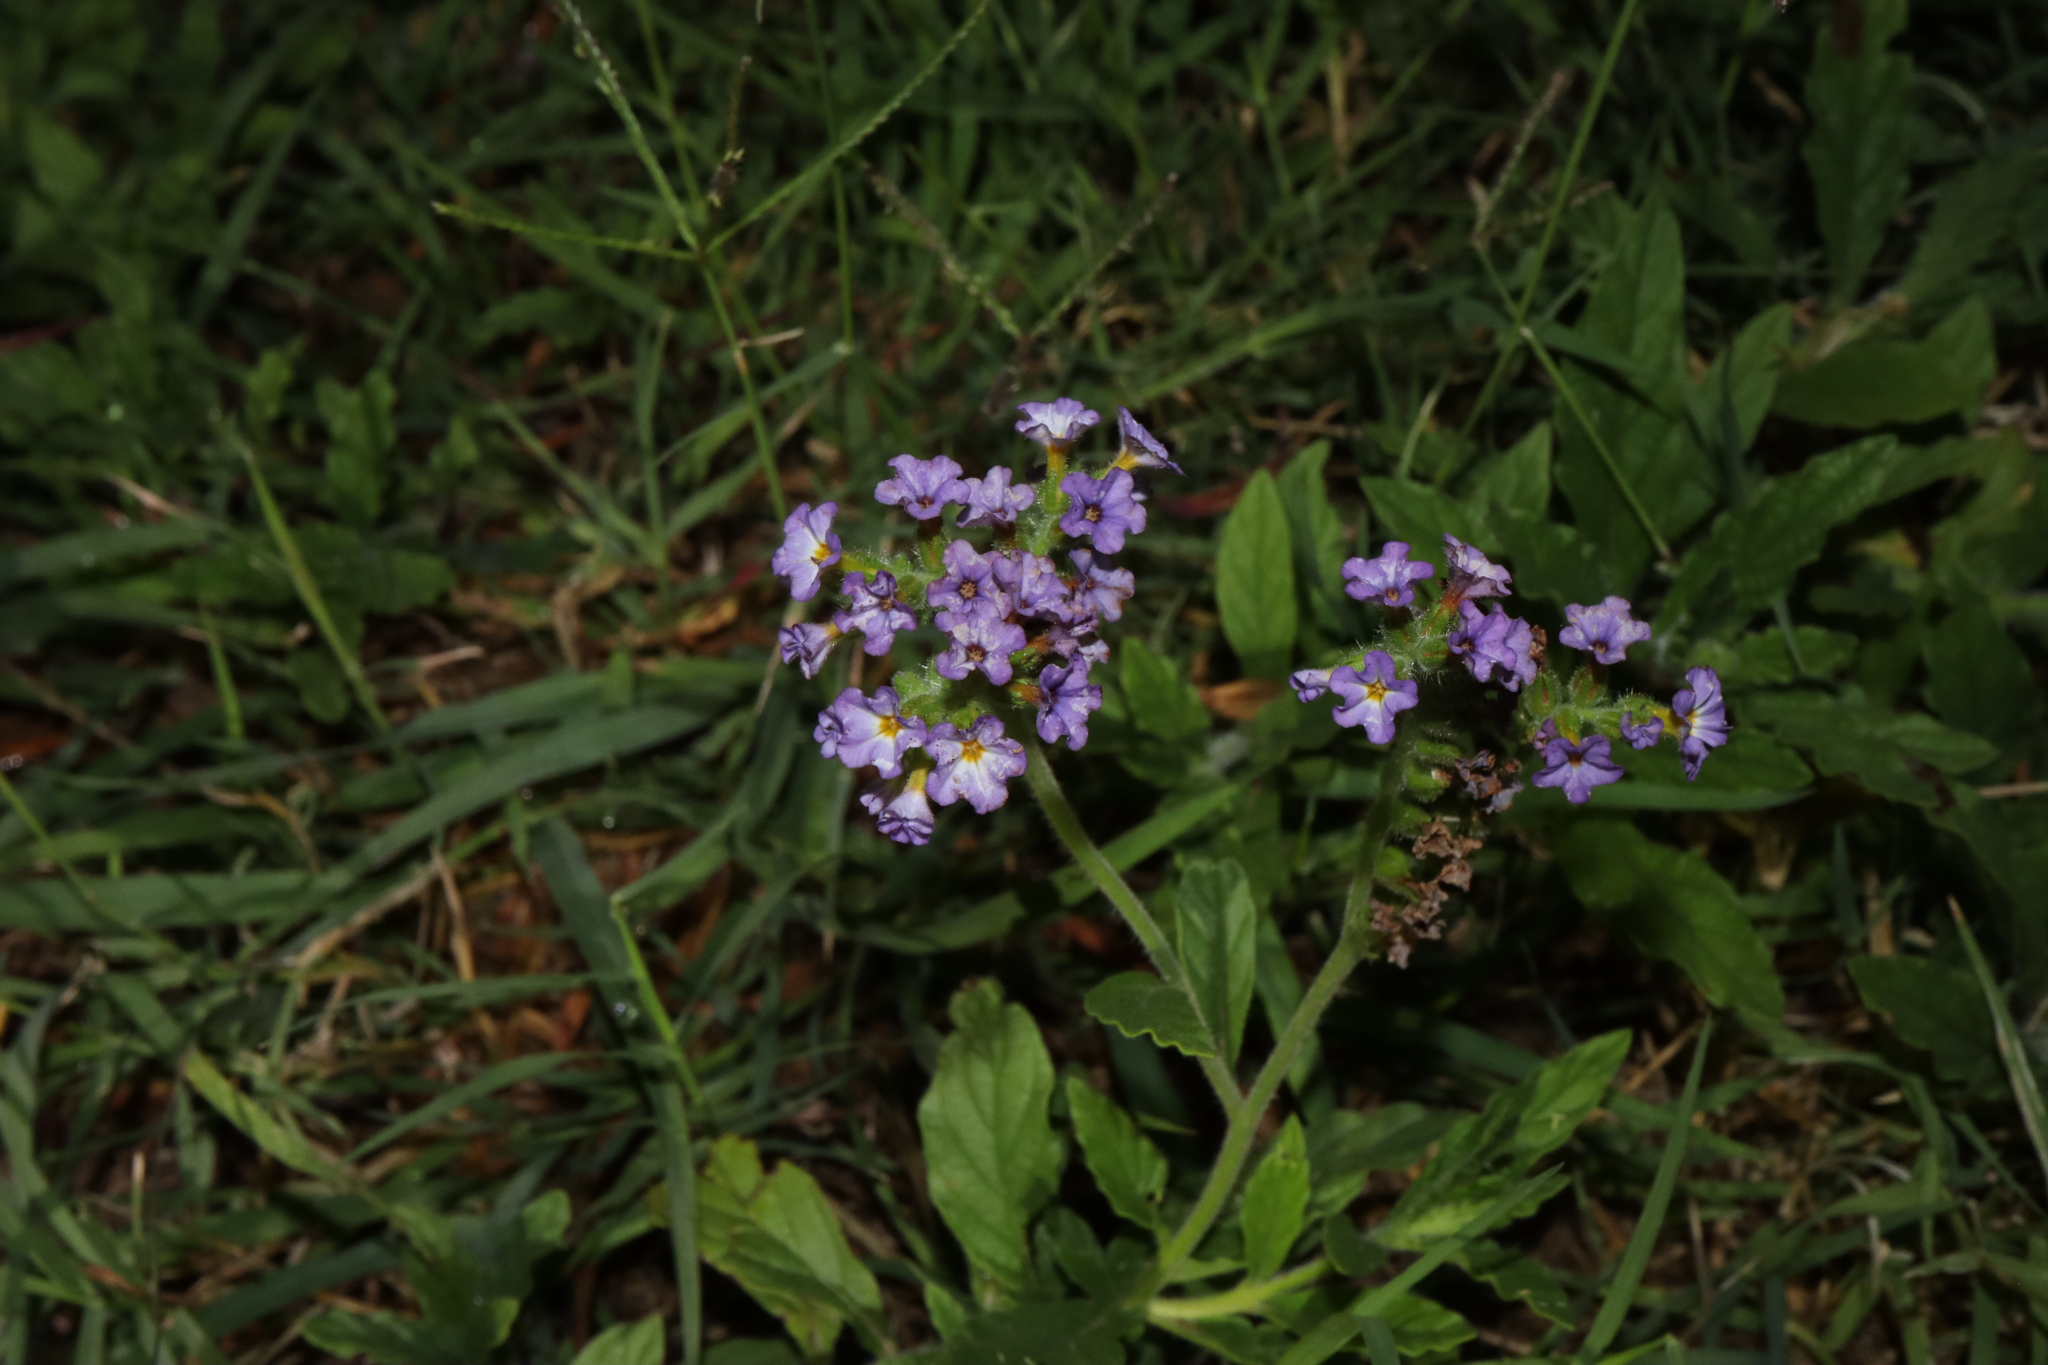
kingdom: Plantae
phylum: Tracheophyta
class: Magnoliopsida
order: Boraginales
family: Heliotropiaceae
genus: Heliotropium
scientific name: Heliotropium amplexicaule
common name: Clasping heliotrope
